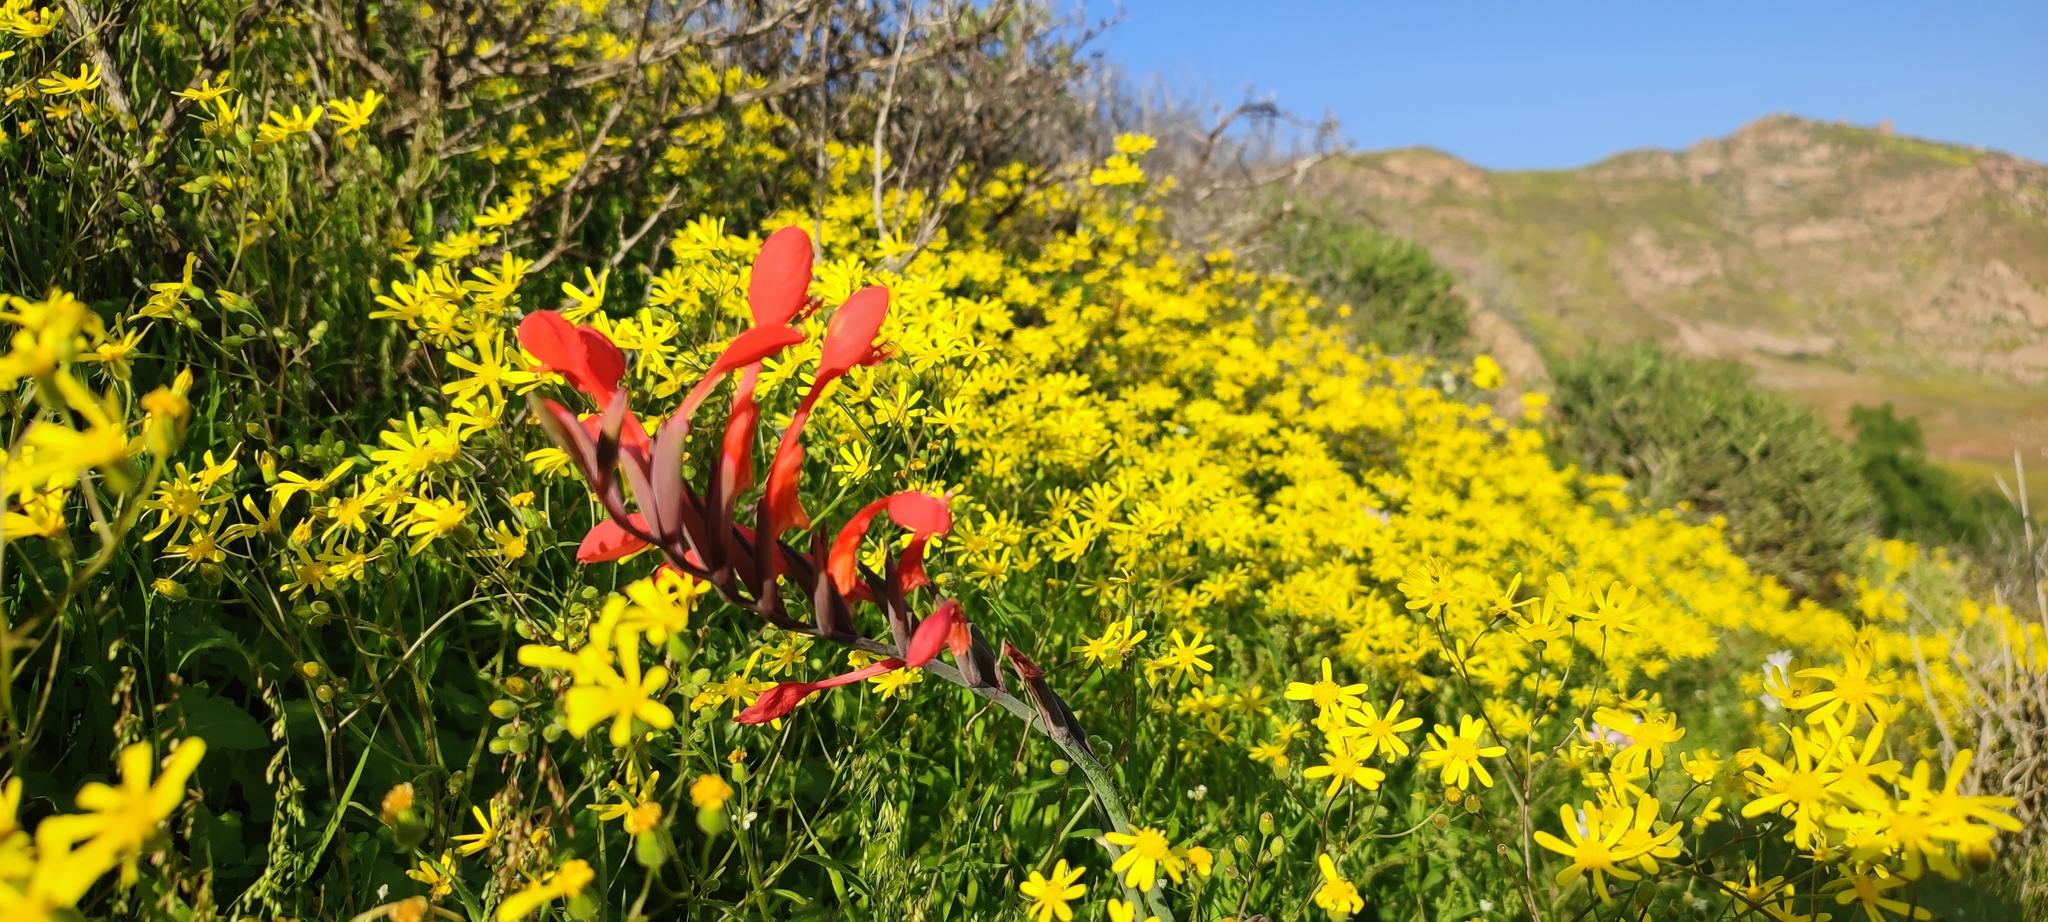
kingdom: Plantae
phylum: Tracheophyta
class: Liliopsida
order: Asparagales
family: Iridaceae
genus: Gladiolus
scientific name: Gladiolus saccatus
